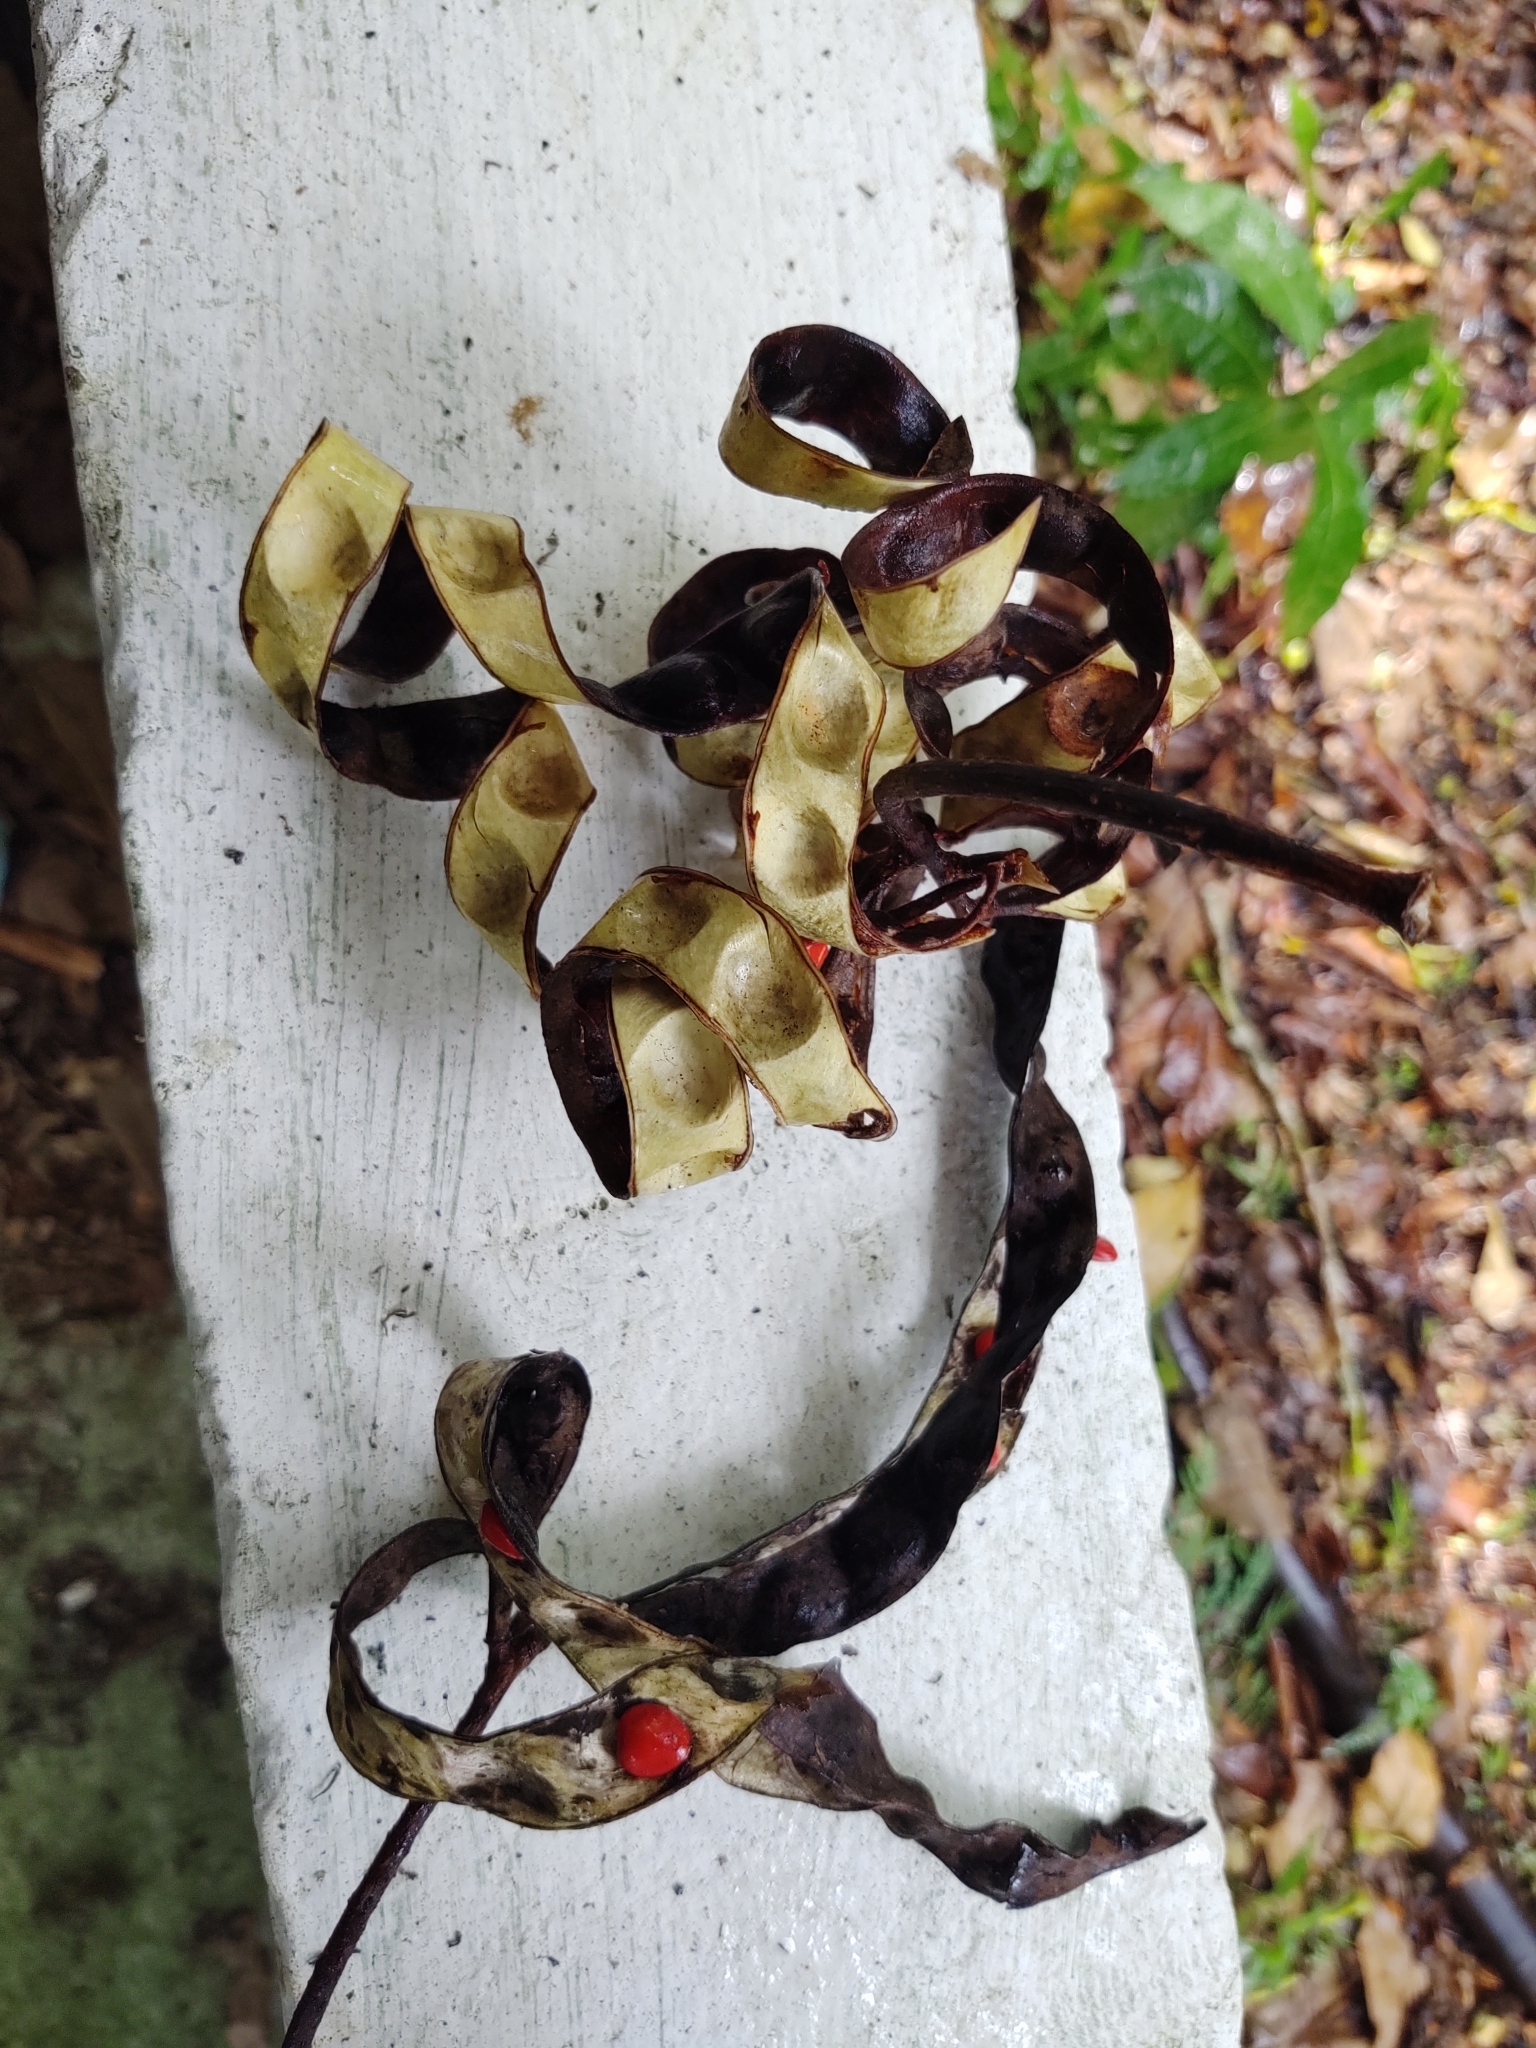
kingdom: Plantae
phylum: Tracheophyta
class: Magnoliopsida
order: Fabales
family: Fabaceae
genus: Adenanthera
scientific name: Adenanthera pavonina
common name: Red beadtree
